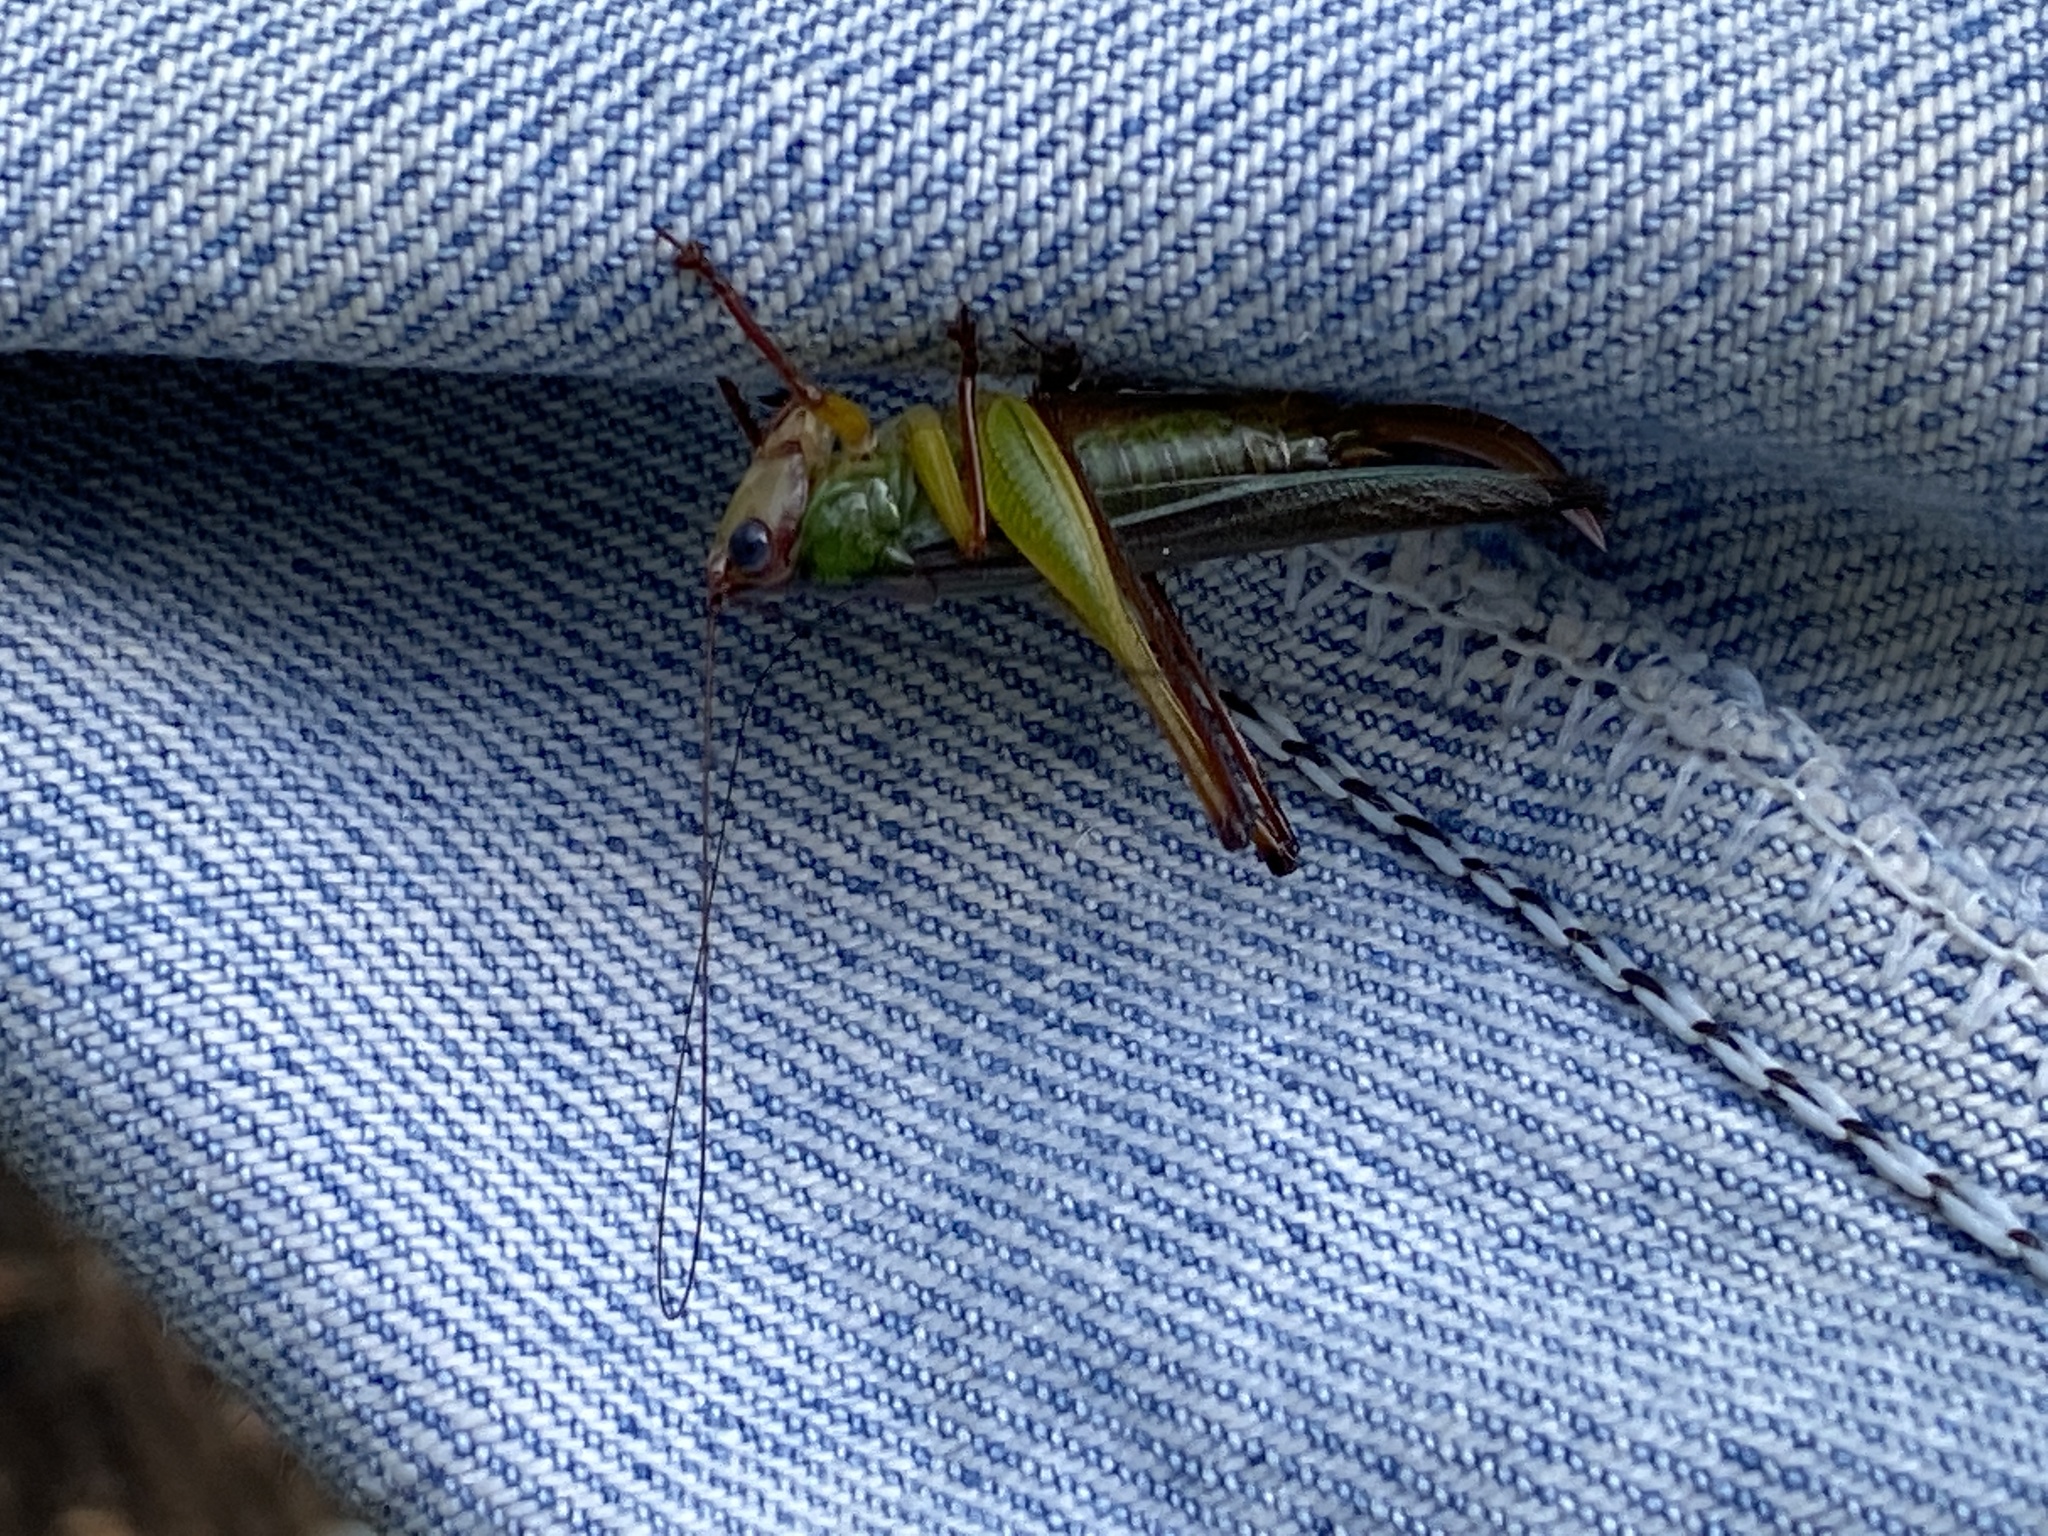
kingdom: Animalia
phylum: Arthropoda
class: Insecta
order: Orthoptera
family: Tettigoniidae
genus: Orchelimum
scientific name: Orchelimum pulchellum
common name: Handsome meadow katydid
